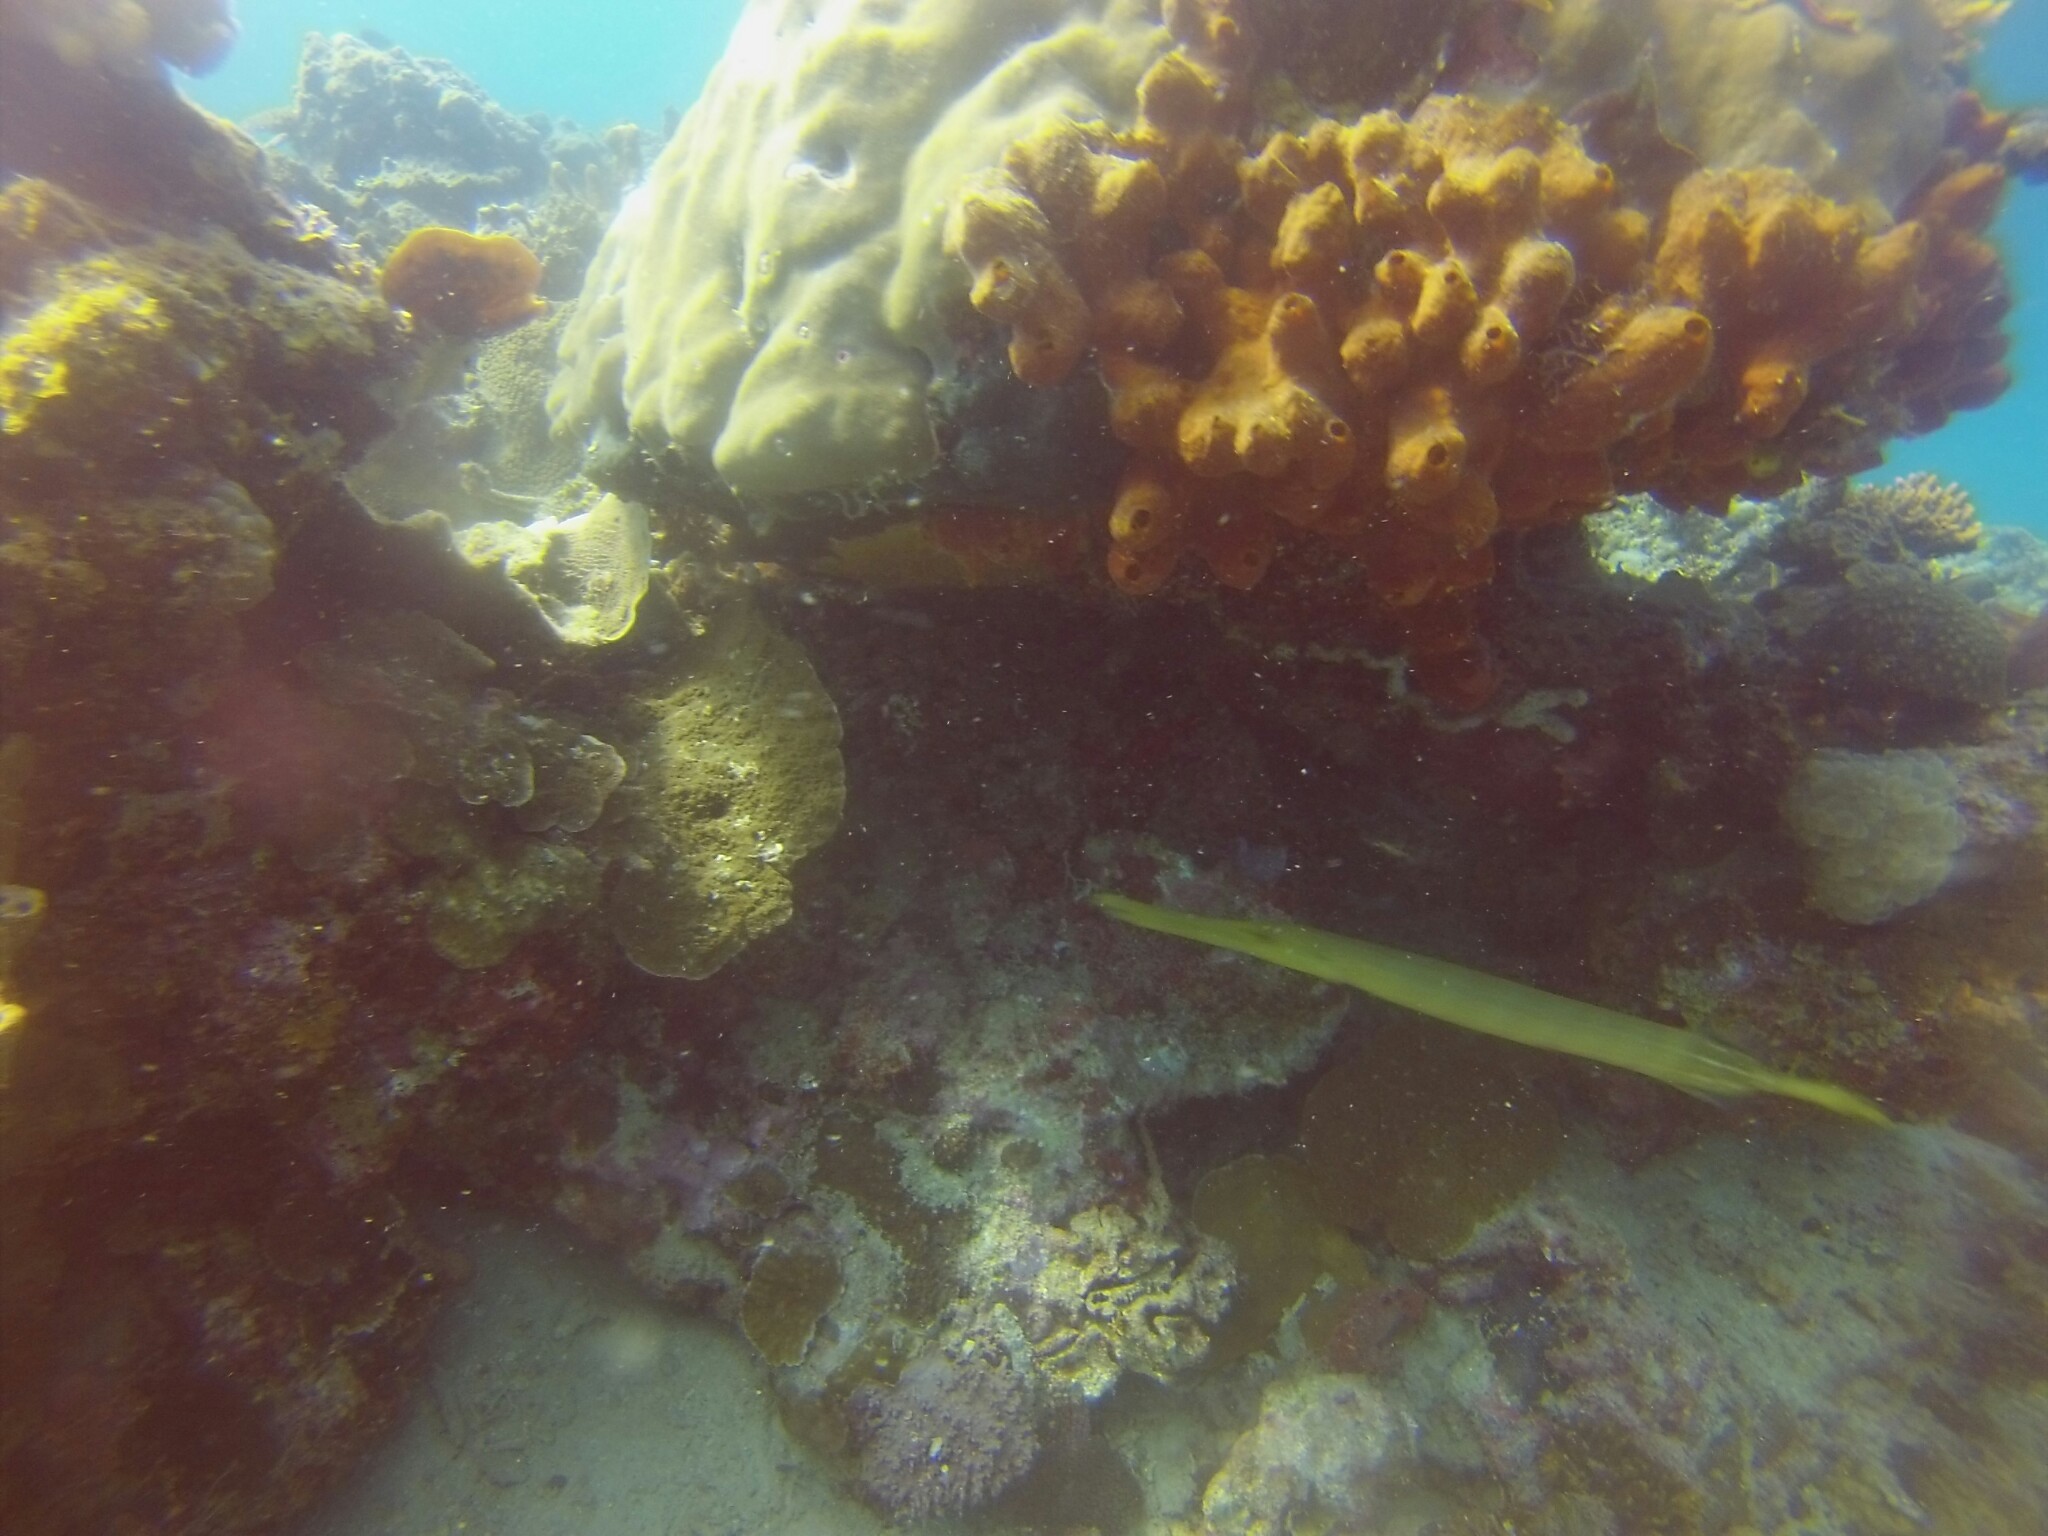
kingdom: Animalia
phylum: Chordata
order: Syngnathiformes
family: Aulostomidae
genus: Aulostomus
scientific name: Aulostomus chinensis
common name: Chinese trumpetfish
